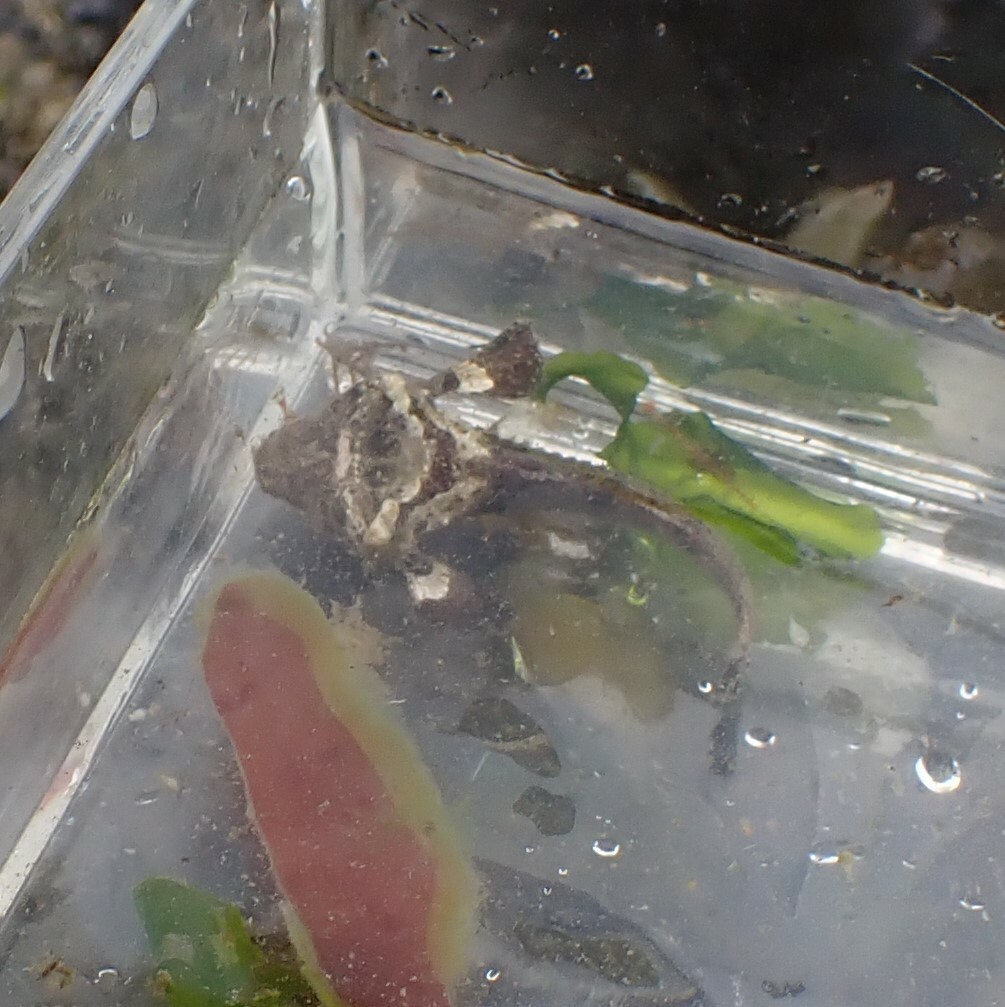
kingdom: Animalia
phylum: Chordata
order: Scorpaeniformes
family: Agonidae
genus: Bothragonus
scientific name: Bothragonus swanii
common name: Rockhead
